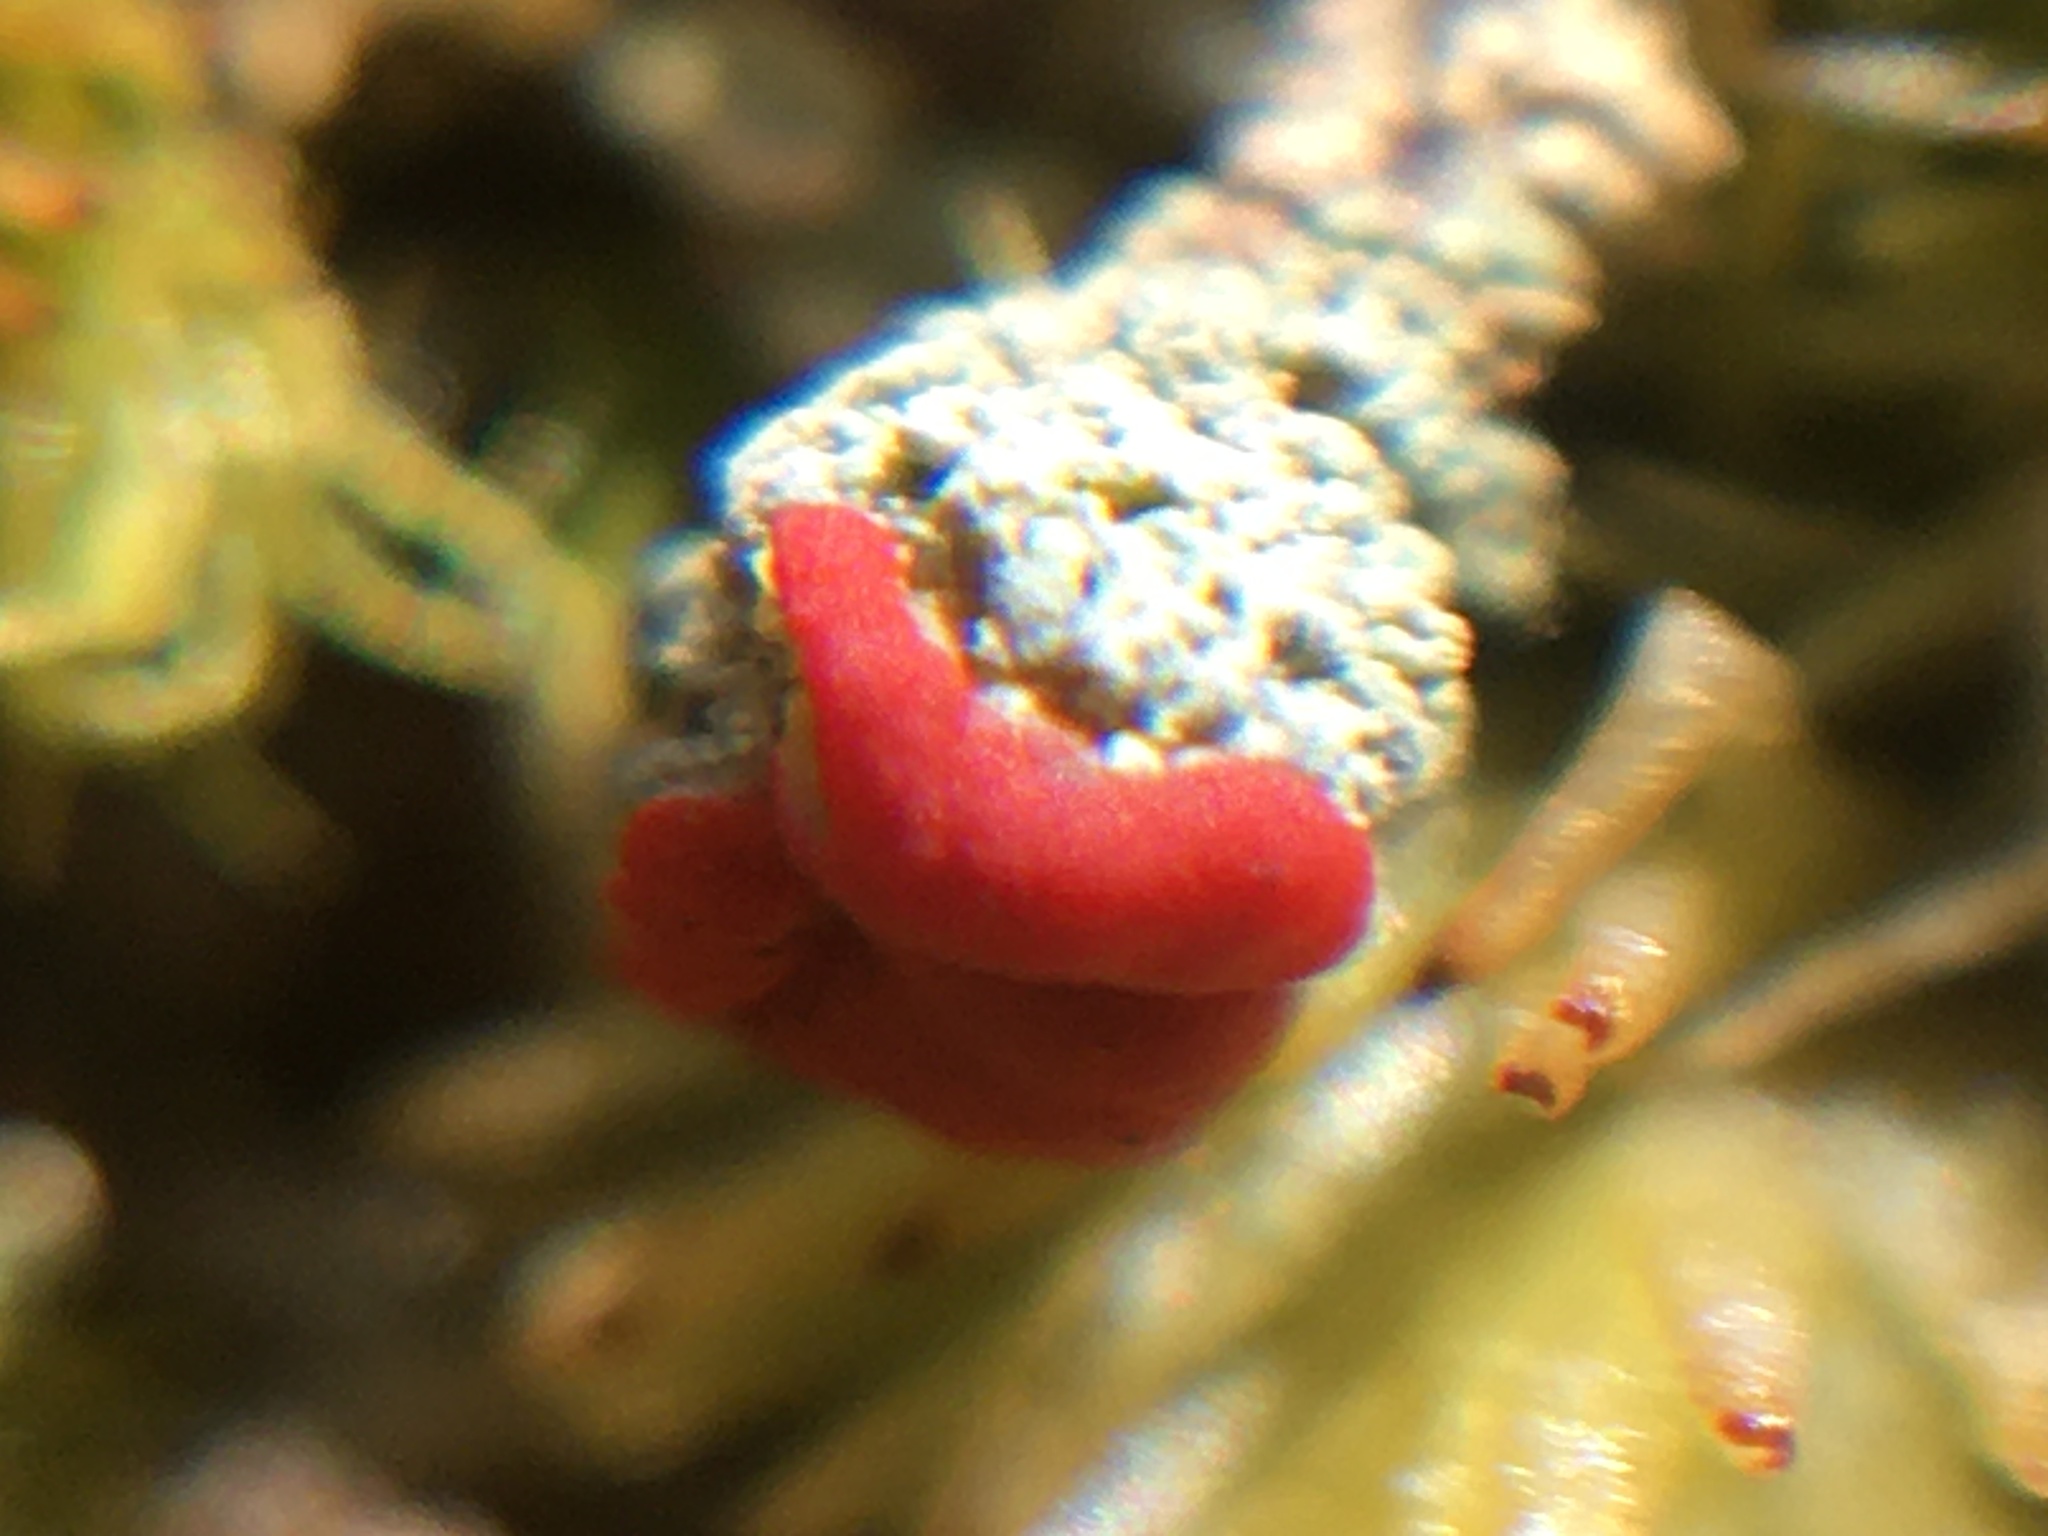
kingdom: Fungi
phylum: Ascomycota
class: Lecanoromycetes
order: Lecanorales
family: Cladoniaceae
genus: Cladonia
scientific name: Cladonia cristatella
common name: British soldier lichen
